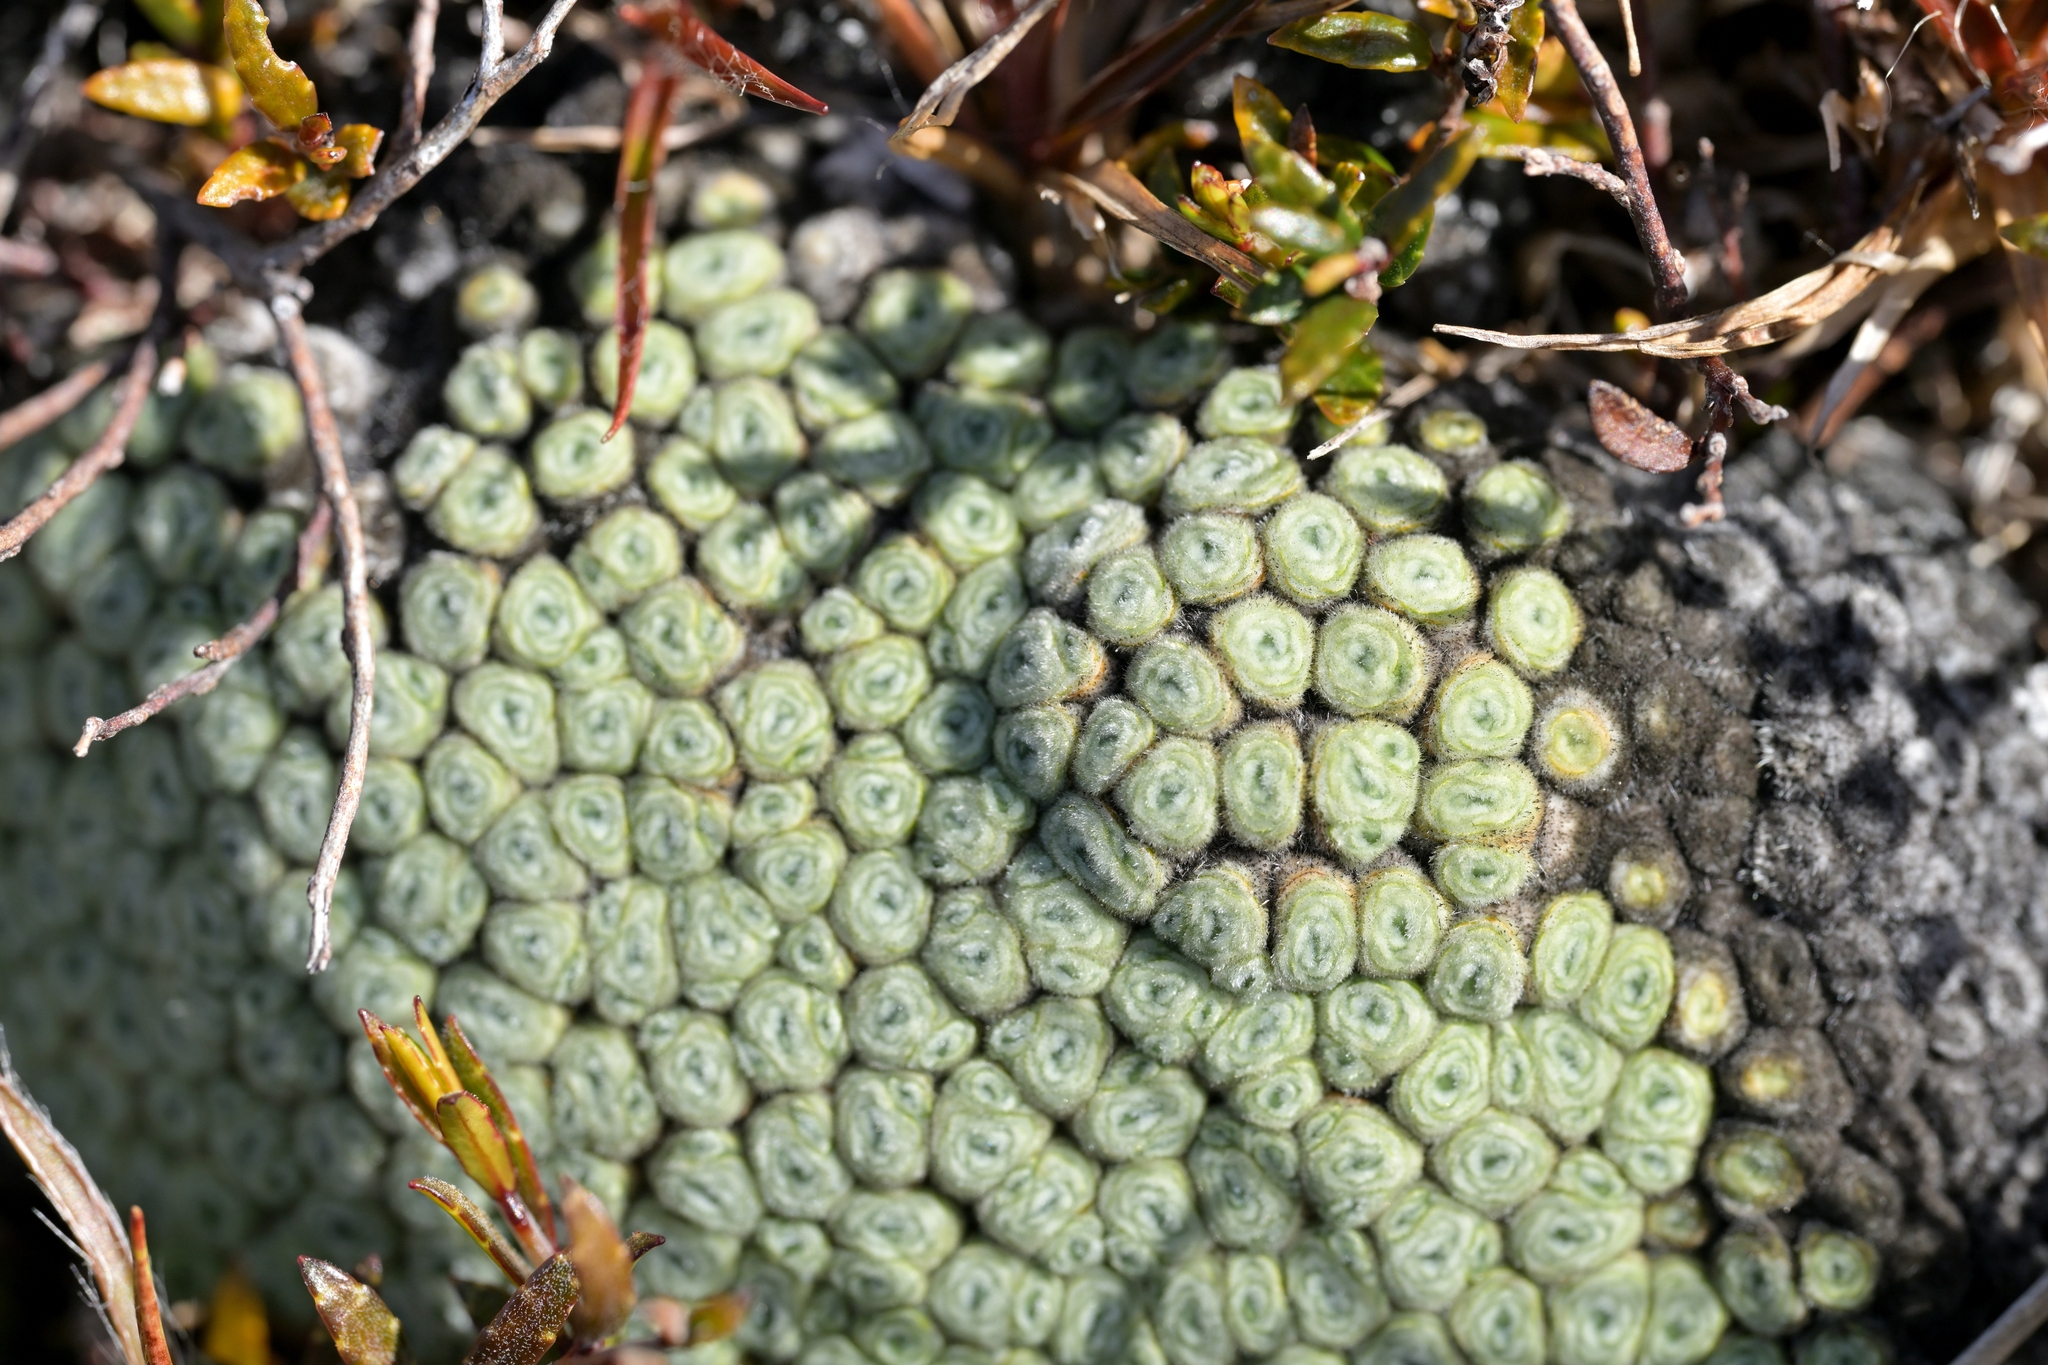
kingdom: Plantae
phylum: Tracheophyta
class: Magnoliopsida
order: Asterales
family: Asteraceae
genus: Raoulia
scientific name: Raoulia eximia
